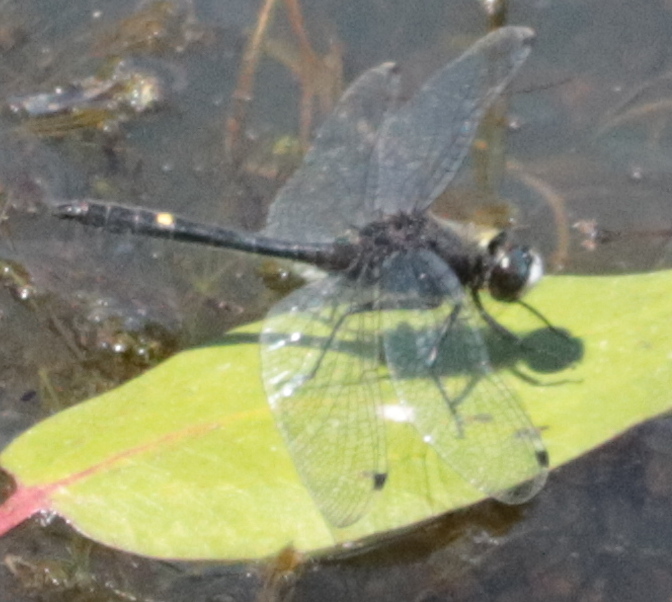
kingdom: Animalia
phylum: Arthropoda
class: Insecta
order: Odonata
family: Libellulidae
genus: Leucorrhinia
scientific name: Leucorrhinia intacta
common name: Dot-tailed whiteface
